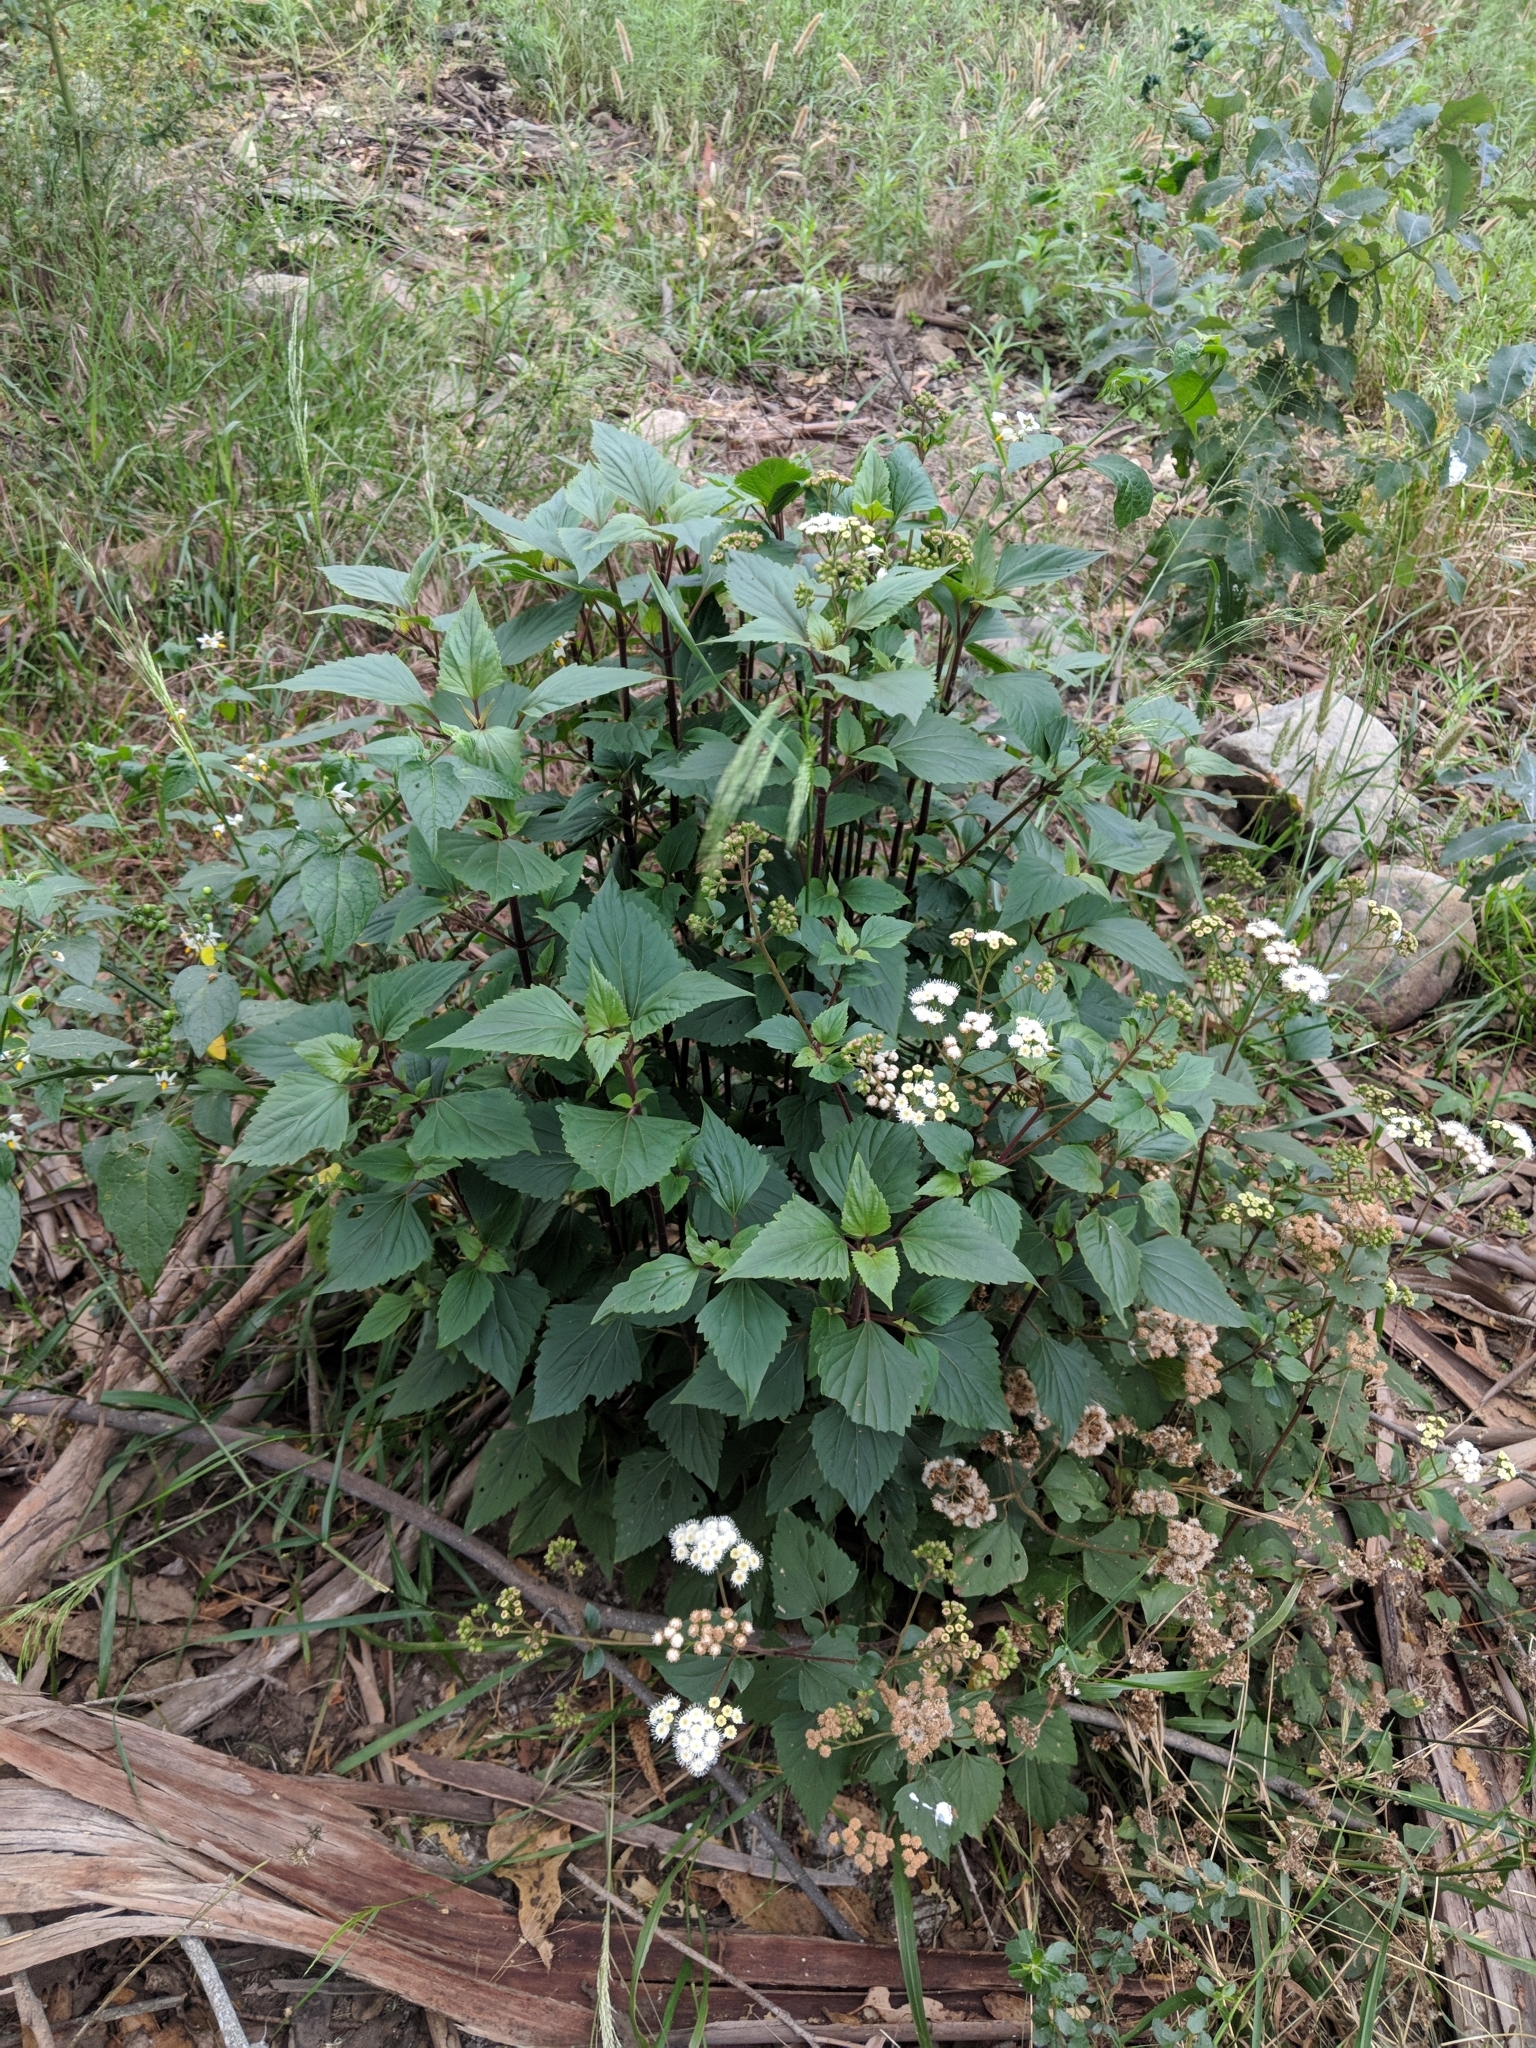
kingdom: Plantae
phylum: Tracheophyta
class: Magnoliopsida
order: Asterales
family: Asteraceae
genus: Ageratina
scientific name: Ageratina adenophora
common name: Sticky snakeroot
